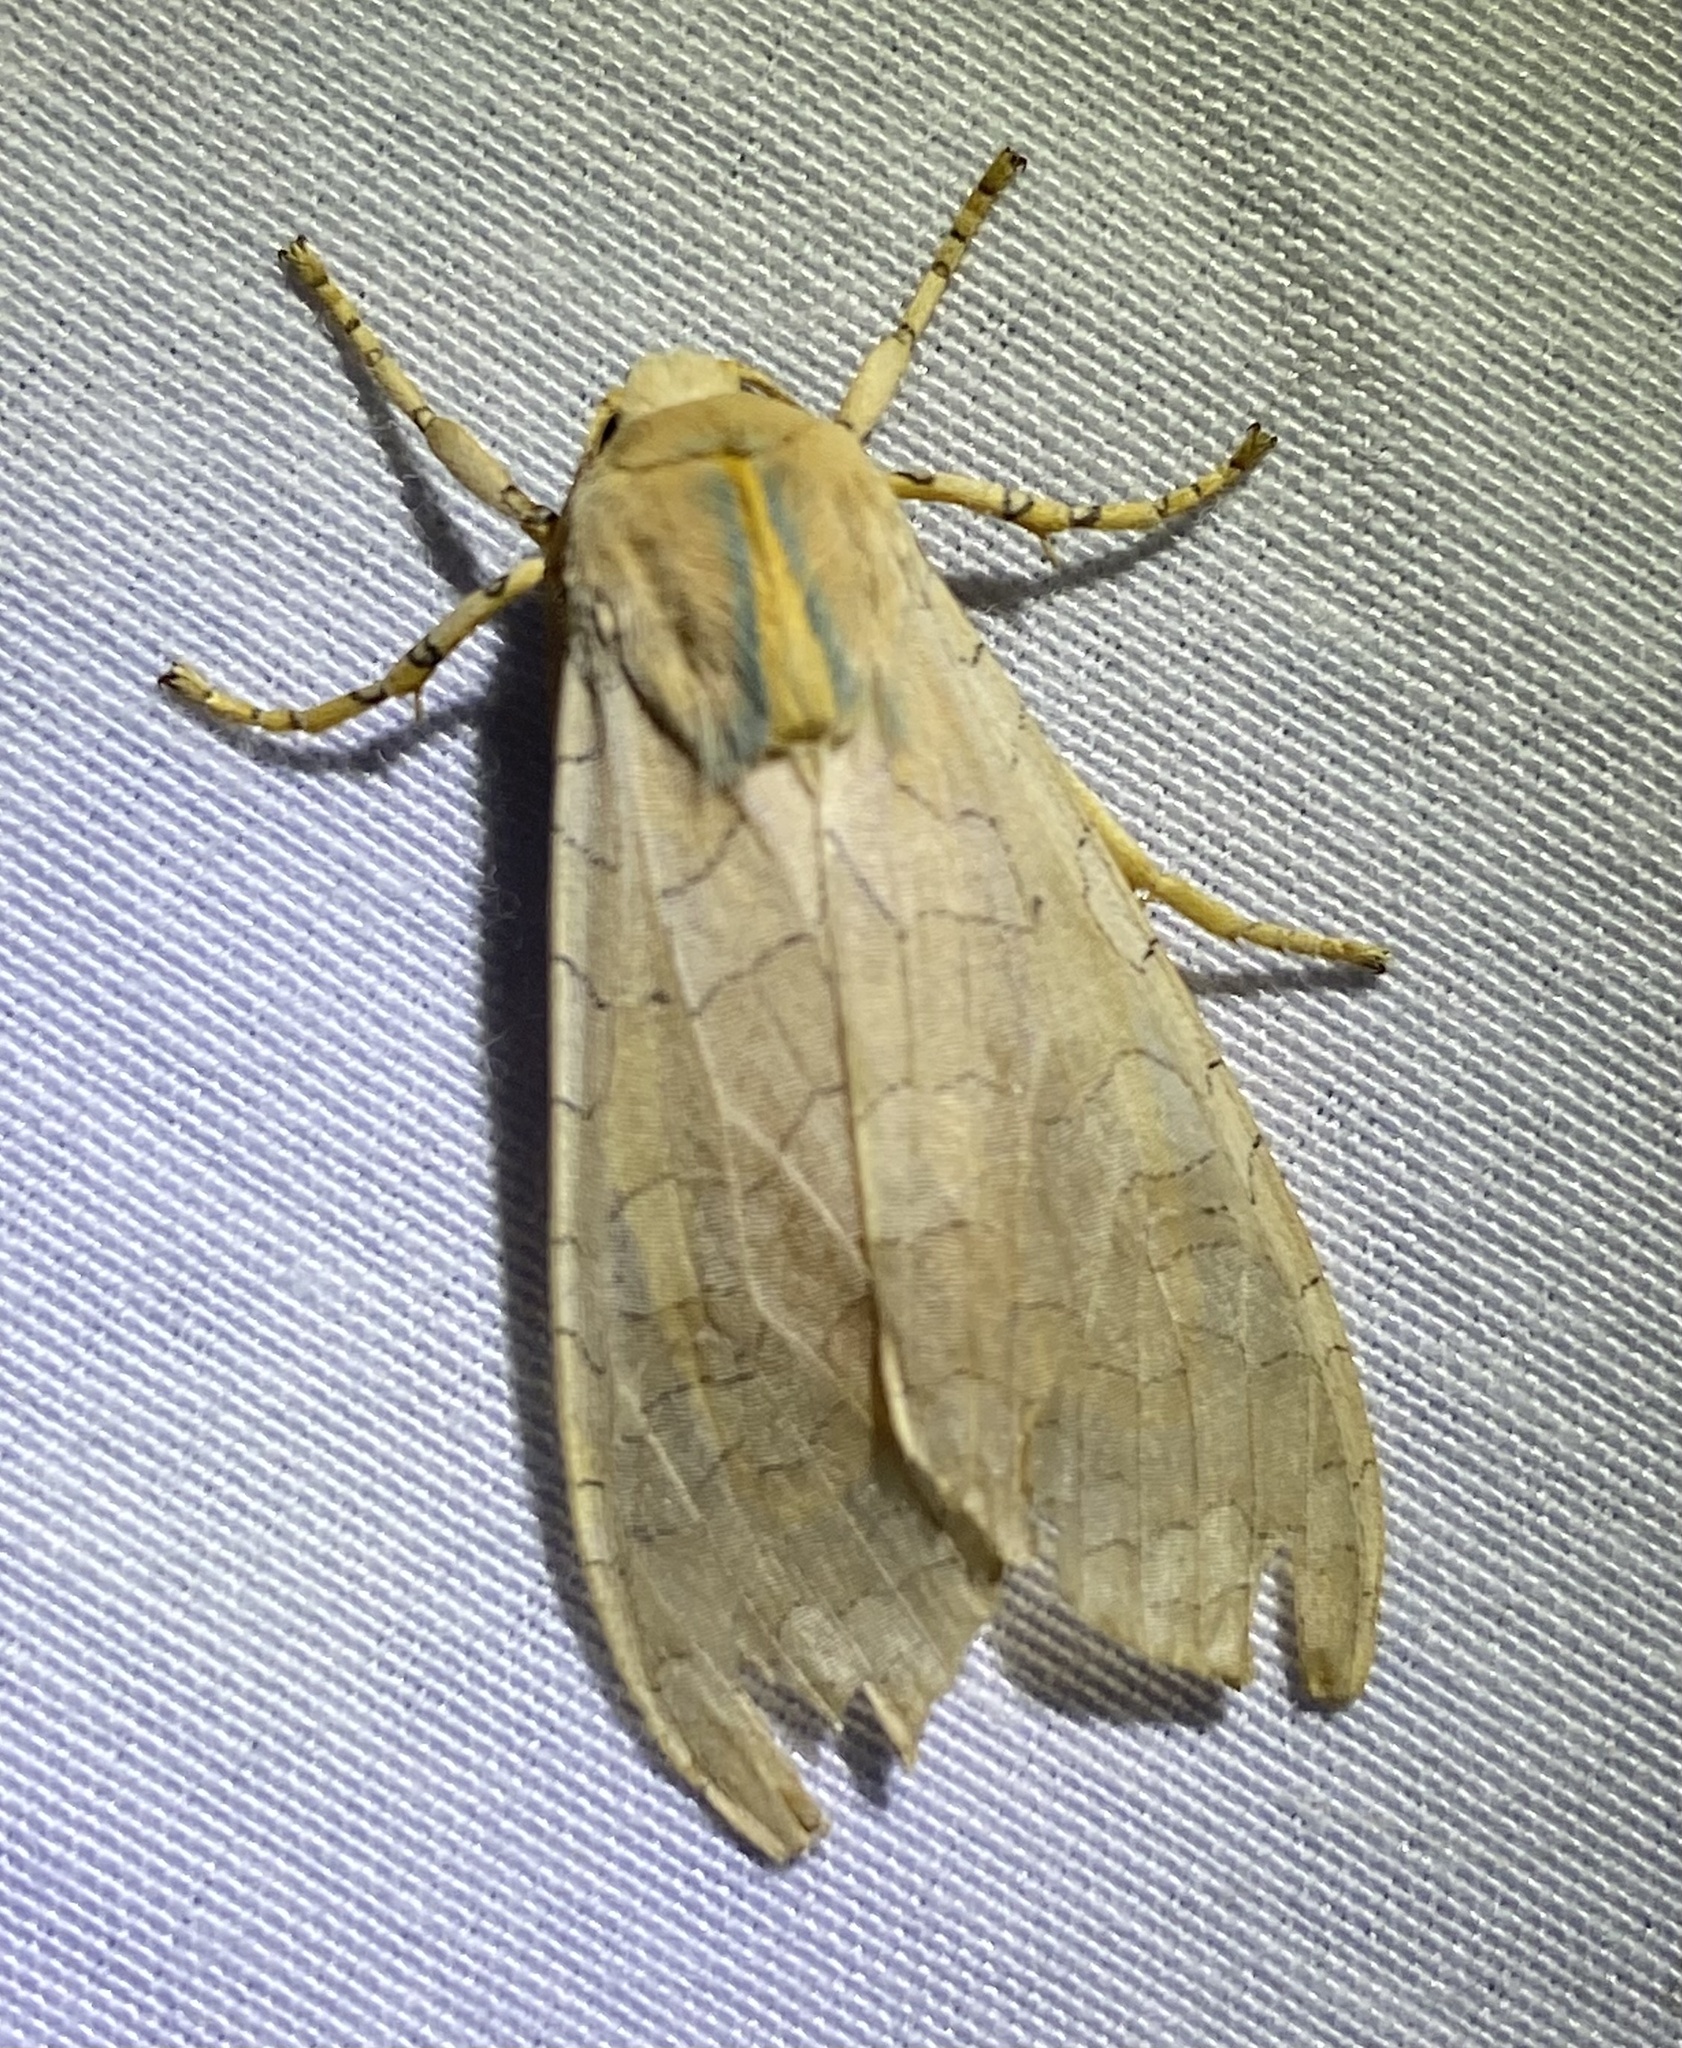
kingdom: Animalia
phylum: Arthropoda
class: Insecta
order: Lepidoptera
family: Erebidae
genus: Halysidota
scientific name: Halysidota
